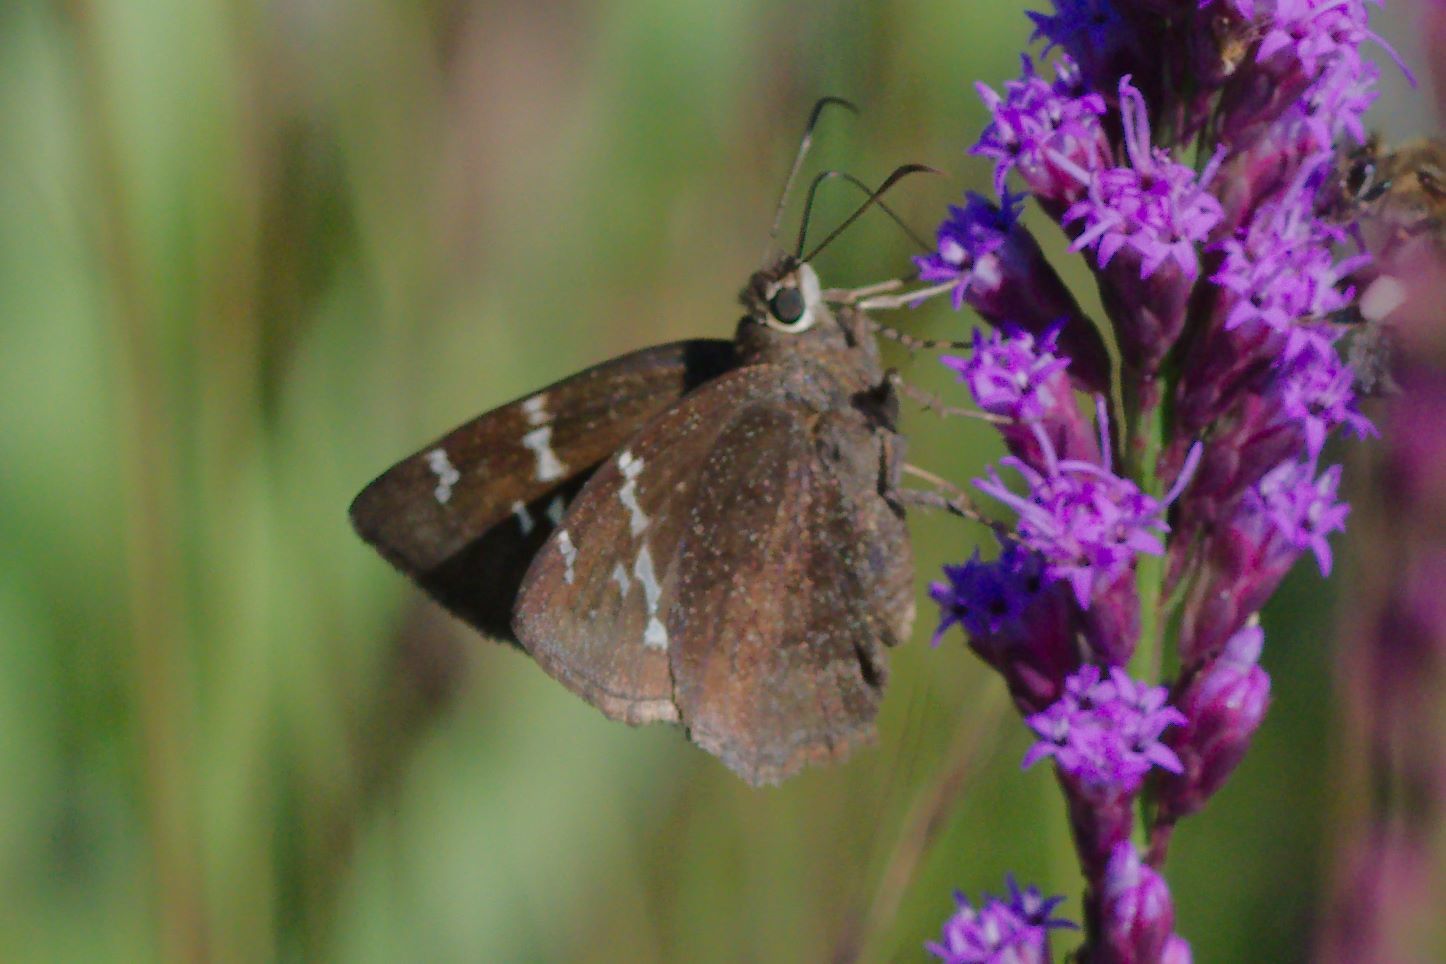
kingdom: Animalia
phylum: Arthropoda
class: Insecta
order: Lepidoptera
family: Hesperiidae
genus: Thorybes
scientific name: Thorybes mexicana
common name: Mexican cloudywing
